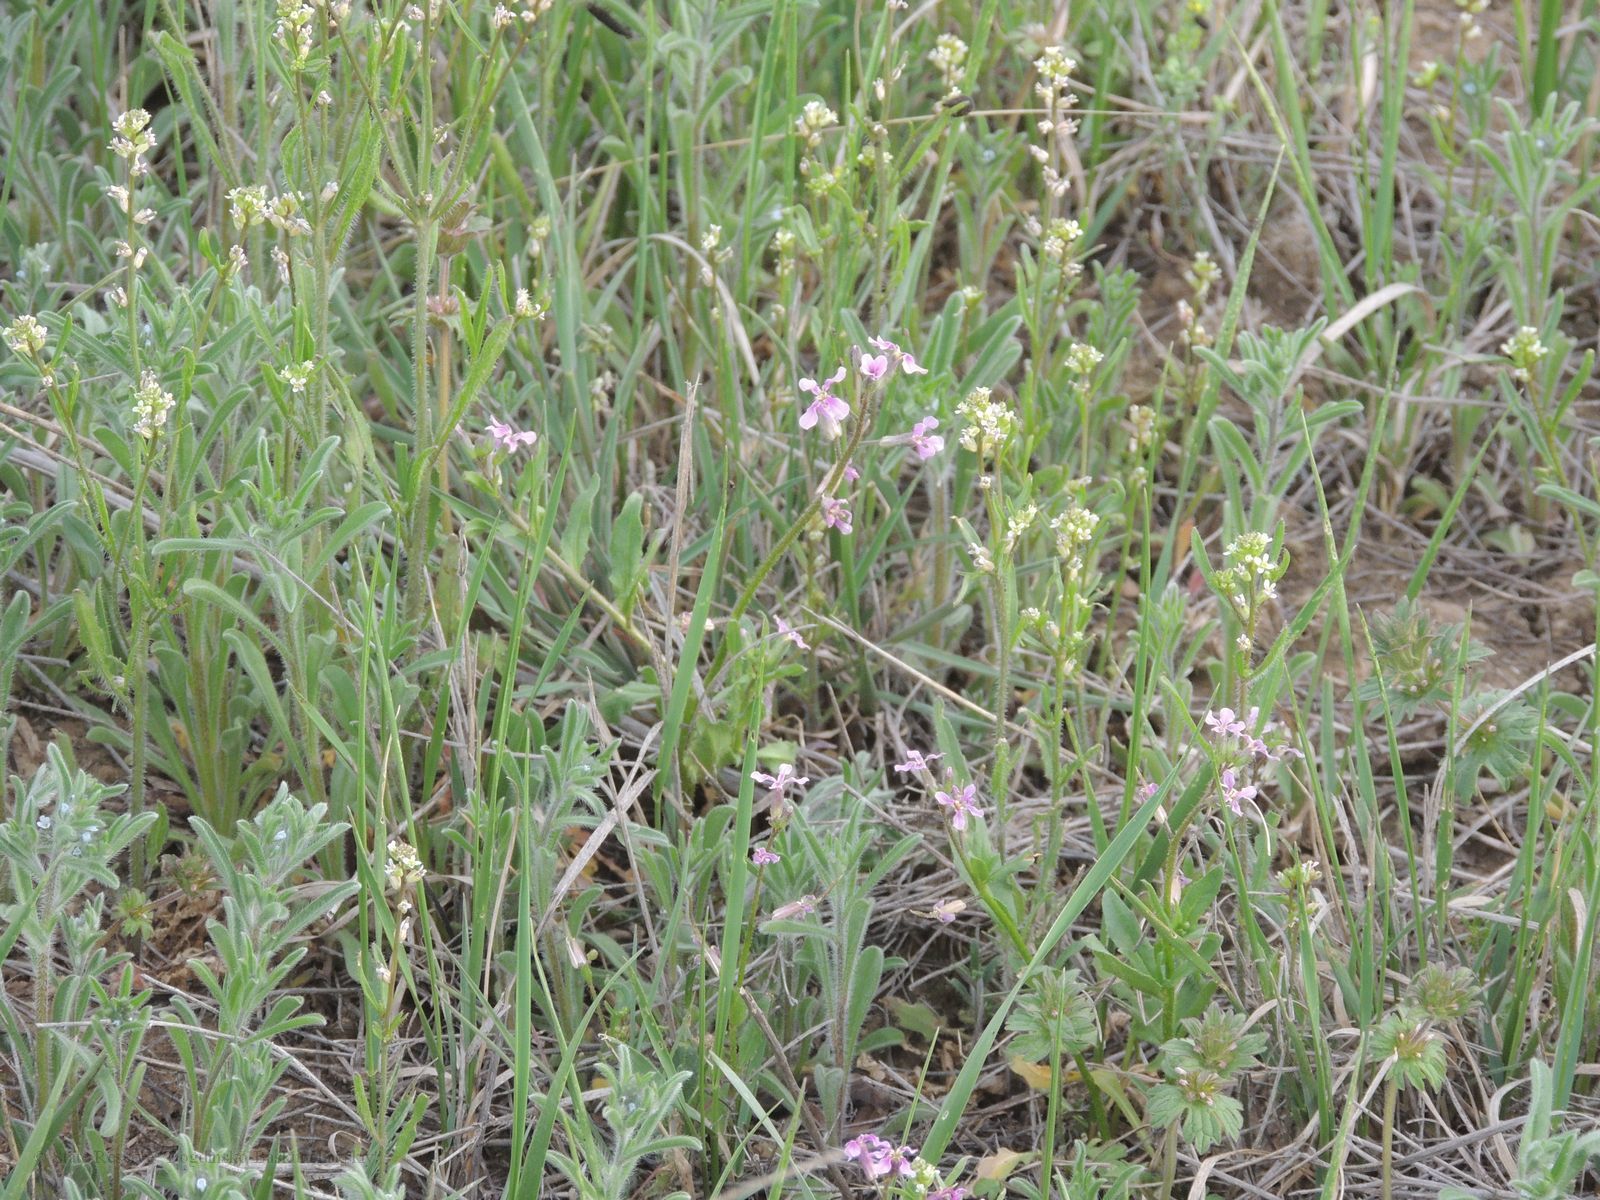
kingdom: Plantae
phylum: Tracheophyta
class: Magnoliopsida
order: Brassicales
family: Brassicaceae
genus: Chorispora
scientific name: Chorispora tenella
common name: Crossflower
